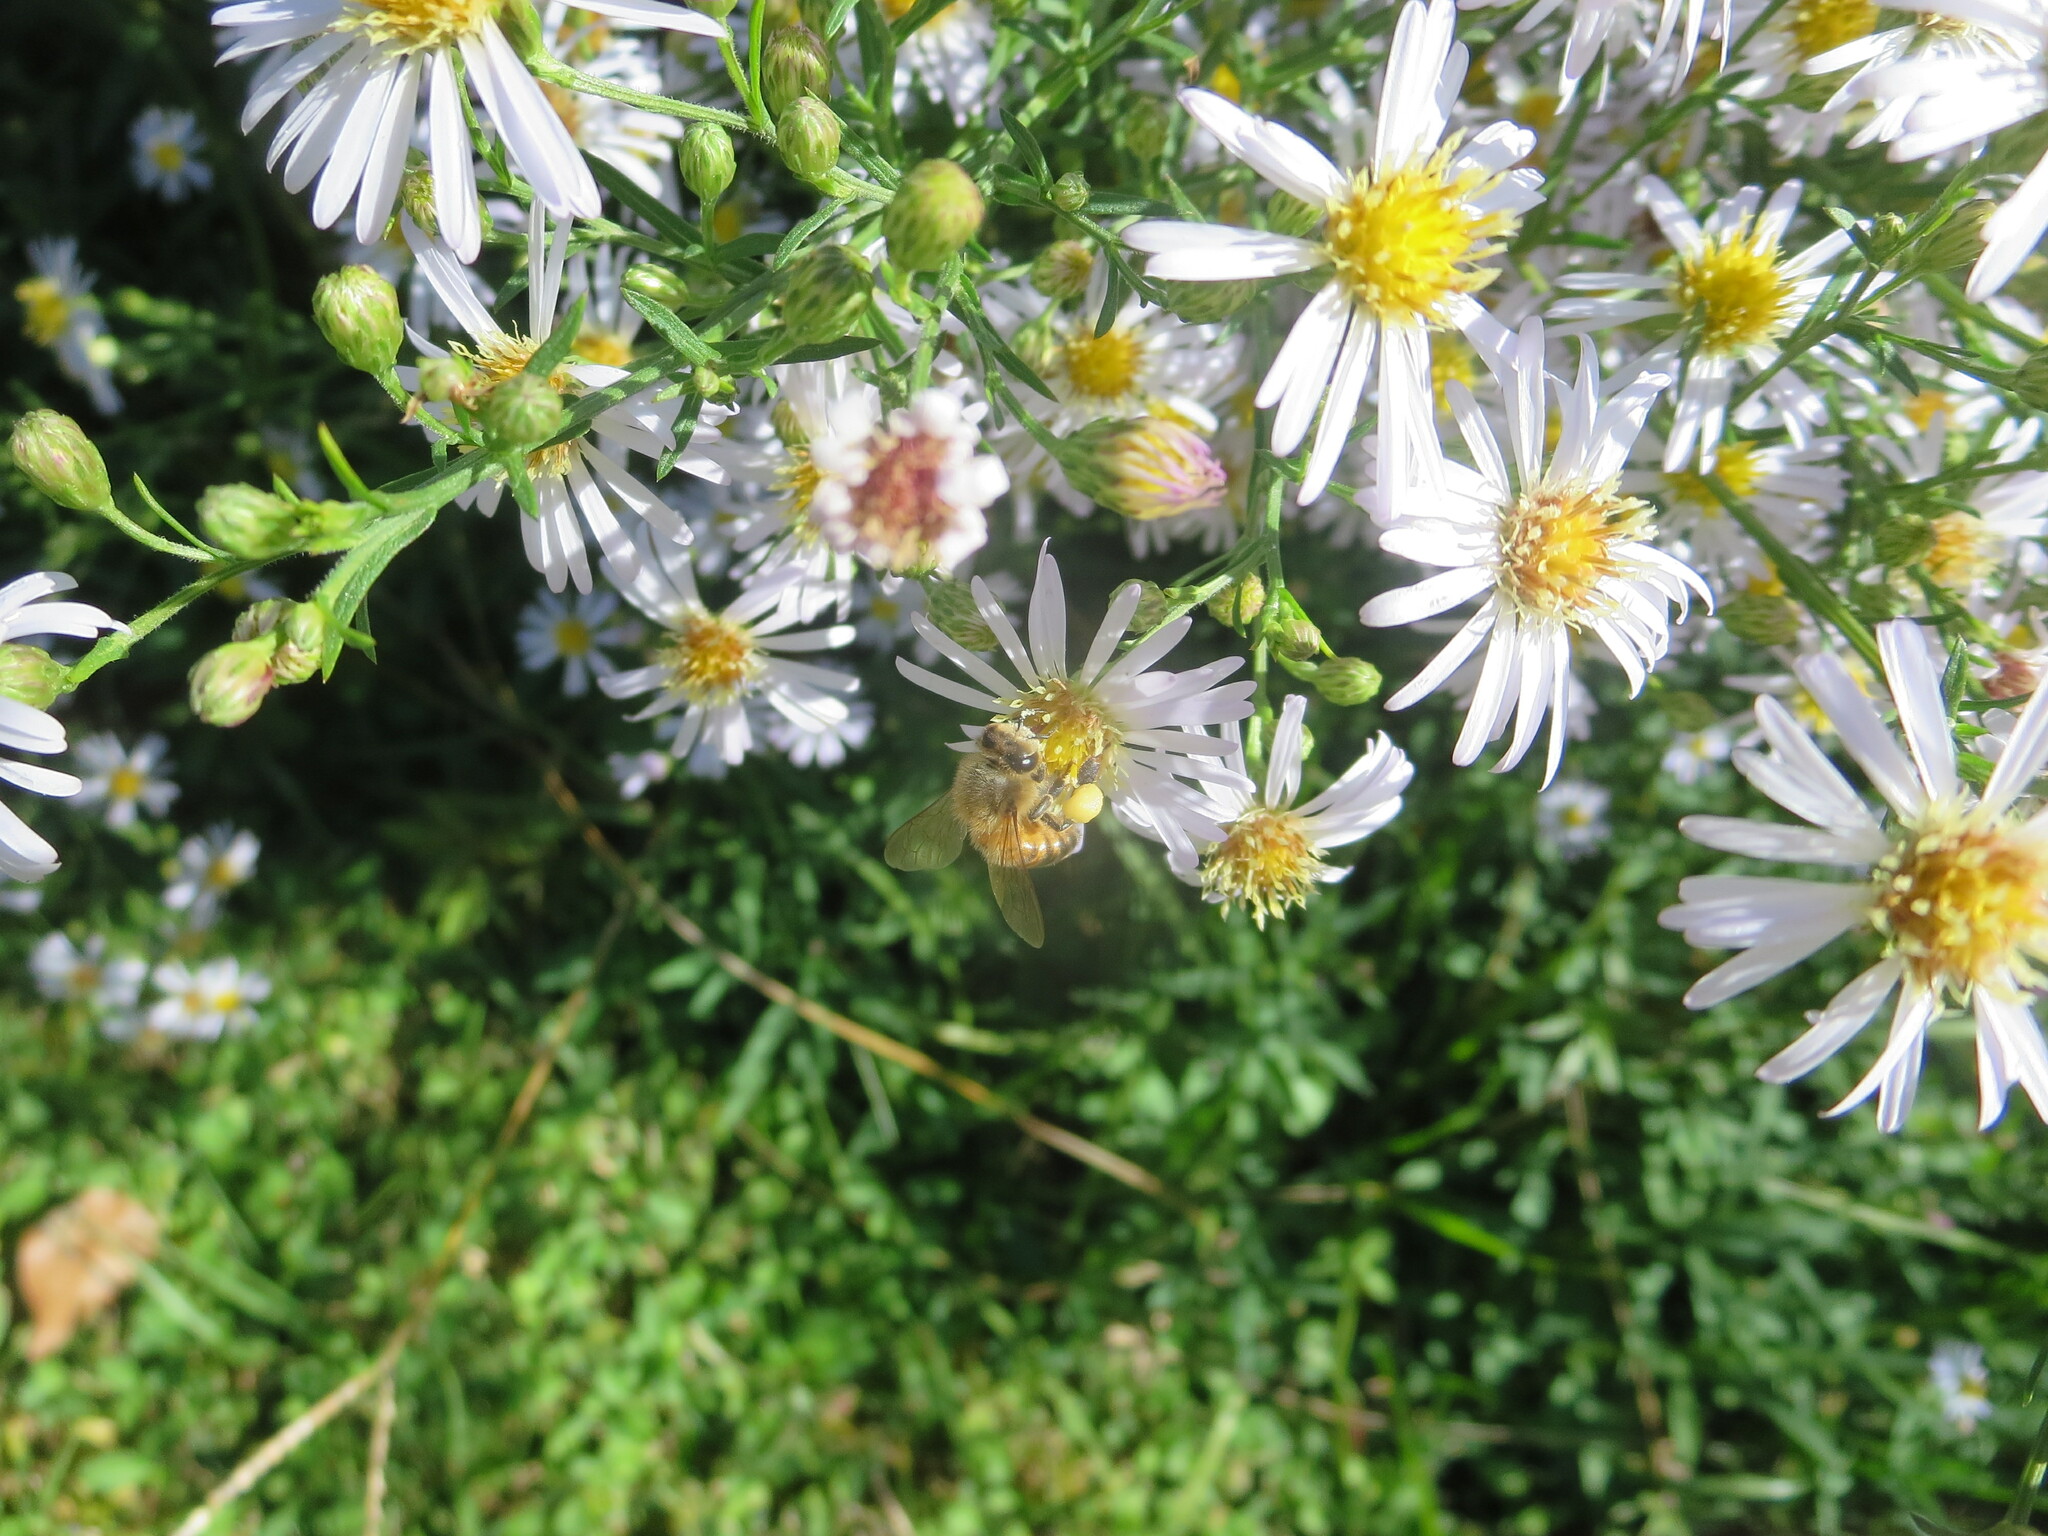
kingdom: Animalia
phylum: Arthropoda
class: Insecta
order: Hymenoptera
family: Apidae
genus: Apis
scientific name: Apis mellifera
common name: Honey bee
